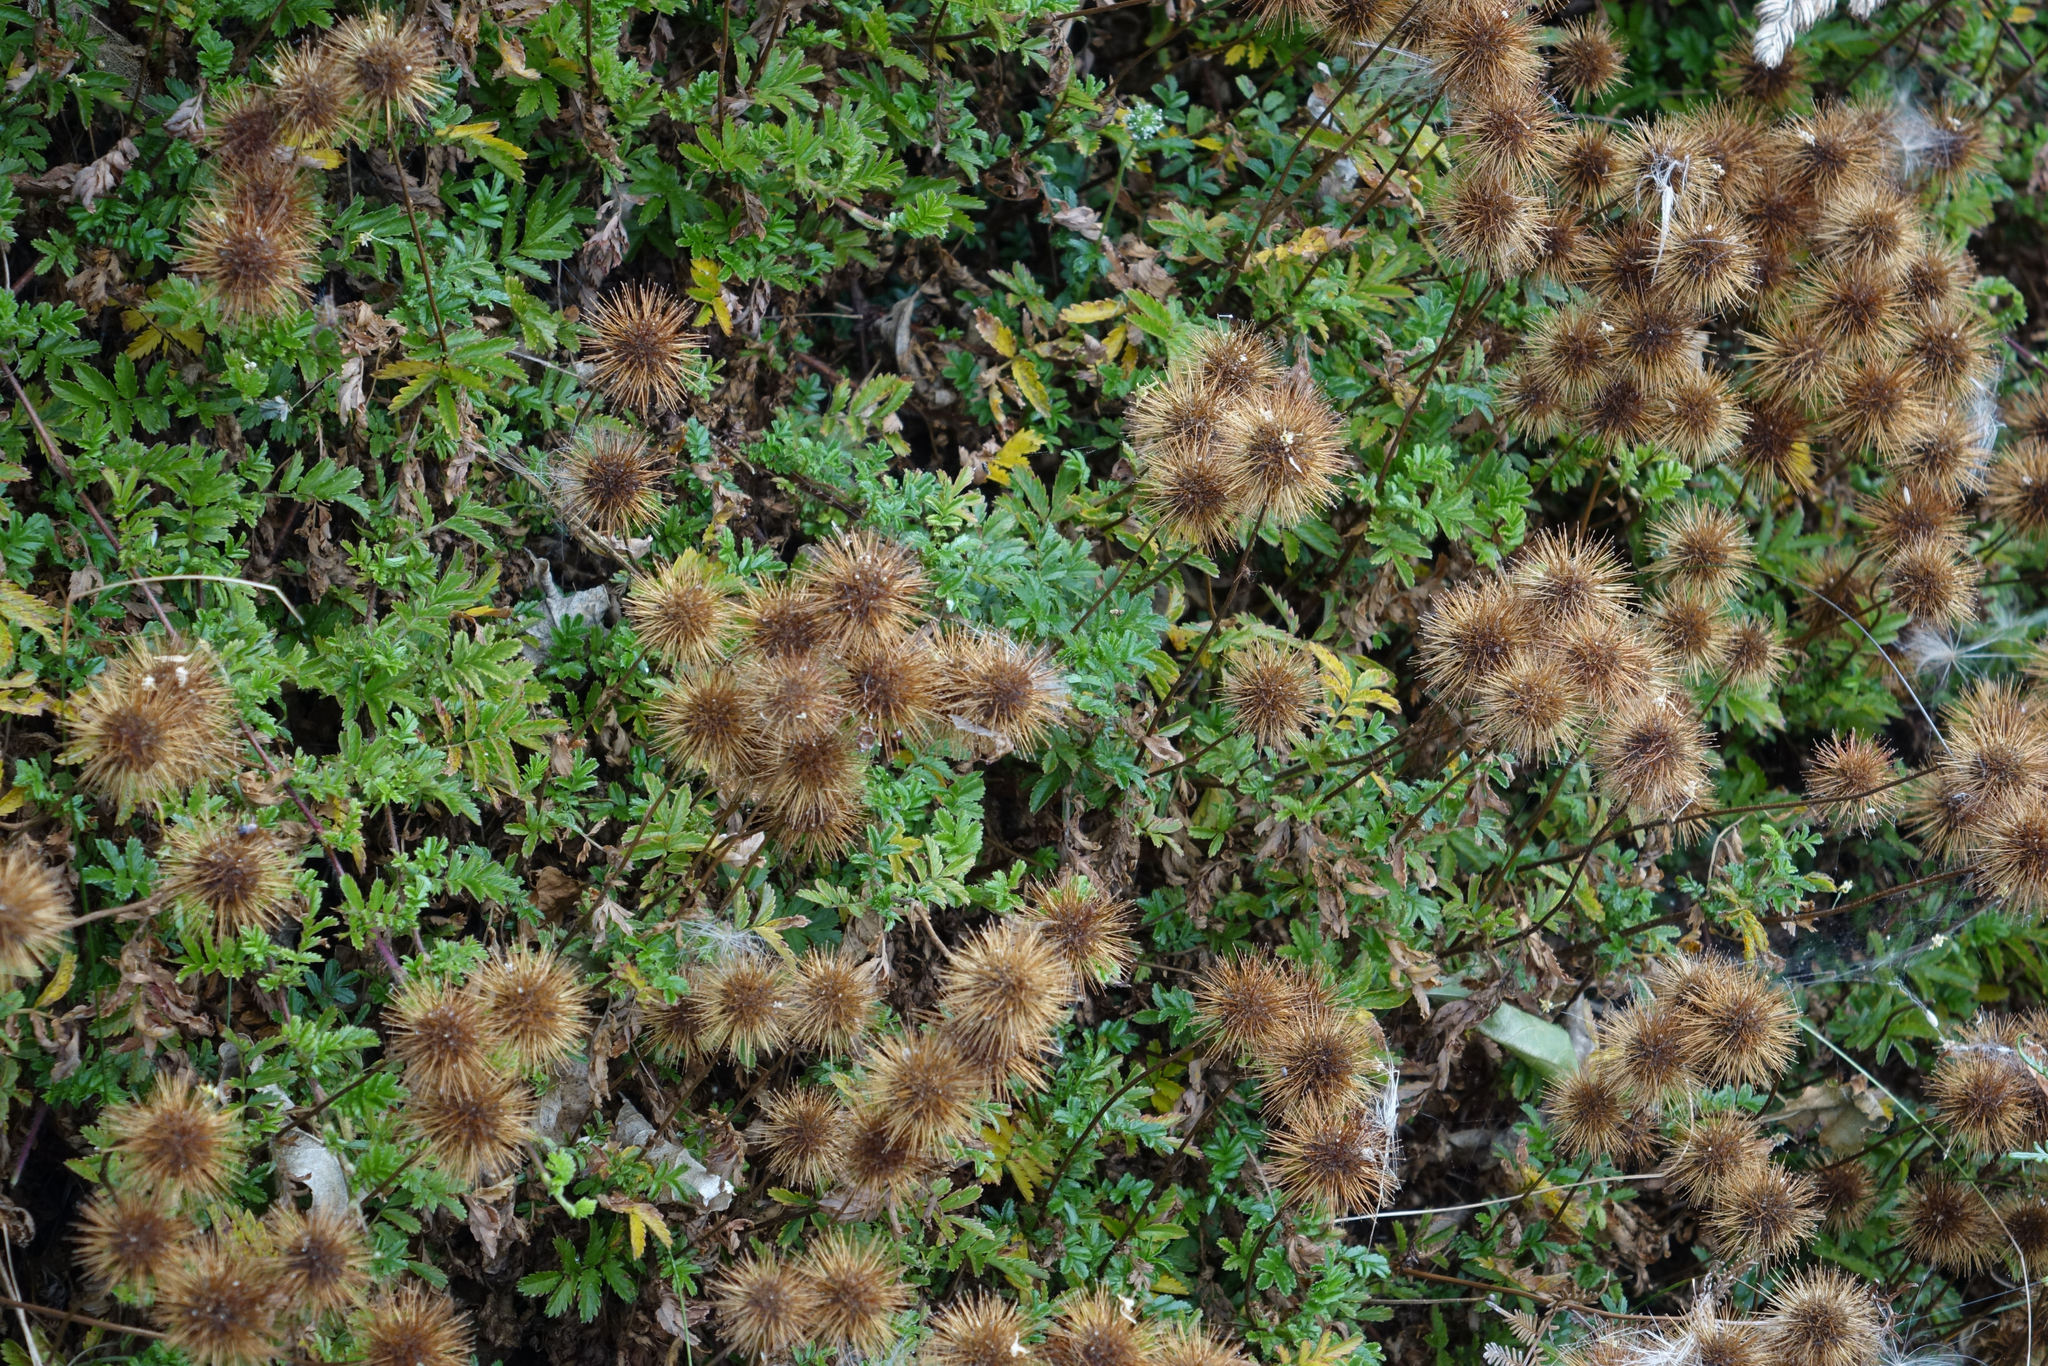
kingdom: Plantae
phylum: Tracheophyta
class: Magnoliopsida
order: Rosales
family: Rosaceae
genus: Acaena
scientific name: Acaena novae-zelandiae
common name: Pirri-pirri-bur
